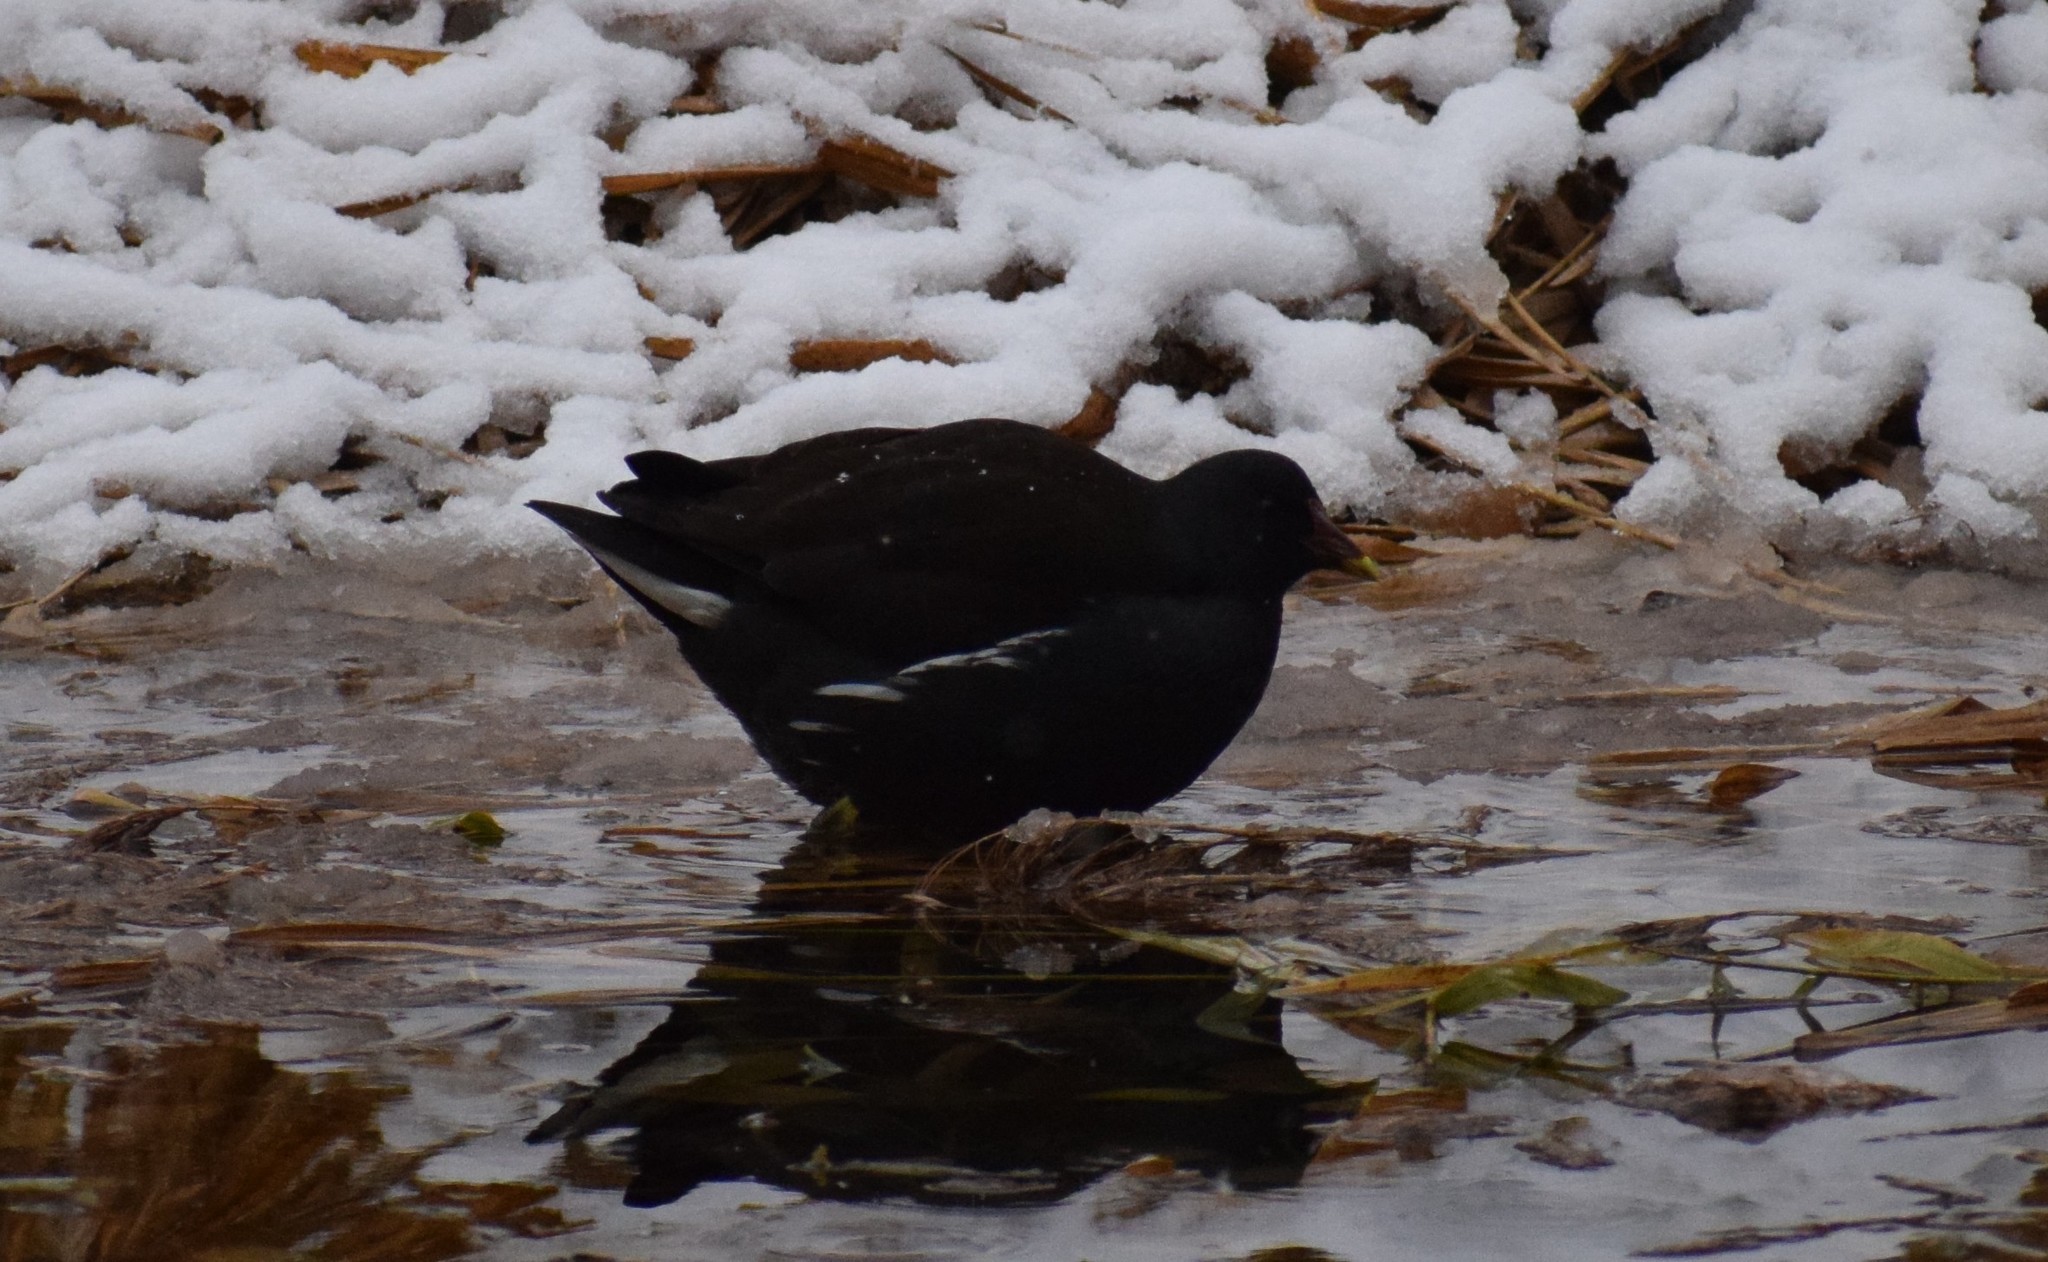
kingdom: Animalia
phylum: Chordata
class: Aves
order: Gruiformes
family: Rallidae
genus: Gallinula
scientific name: Gallinula chloropus
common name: Common moorhen
